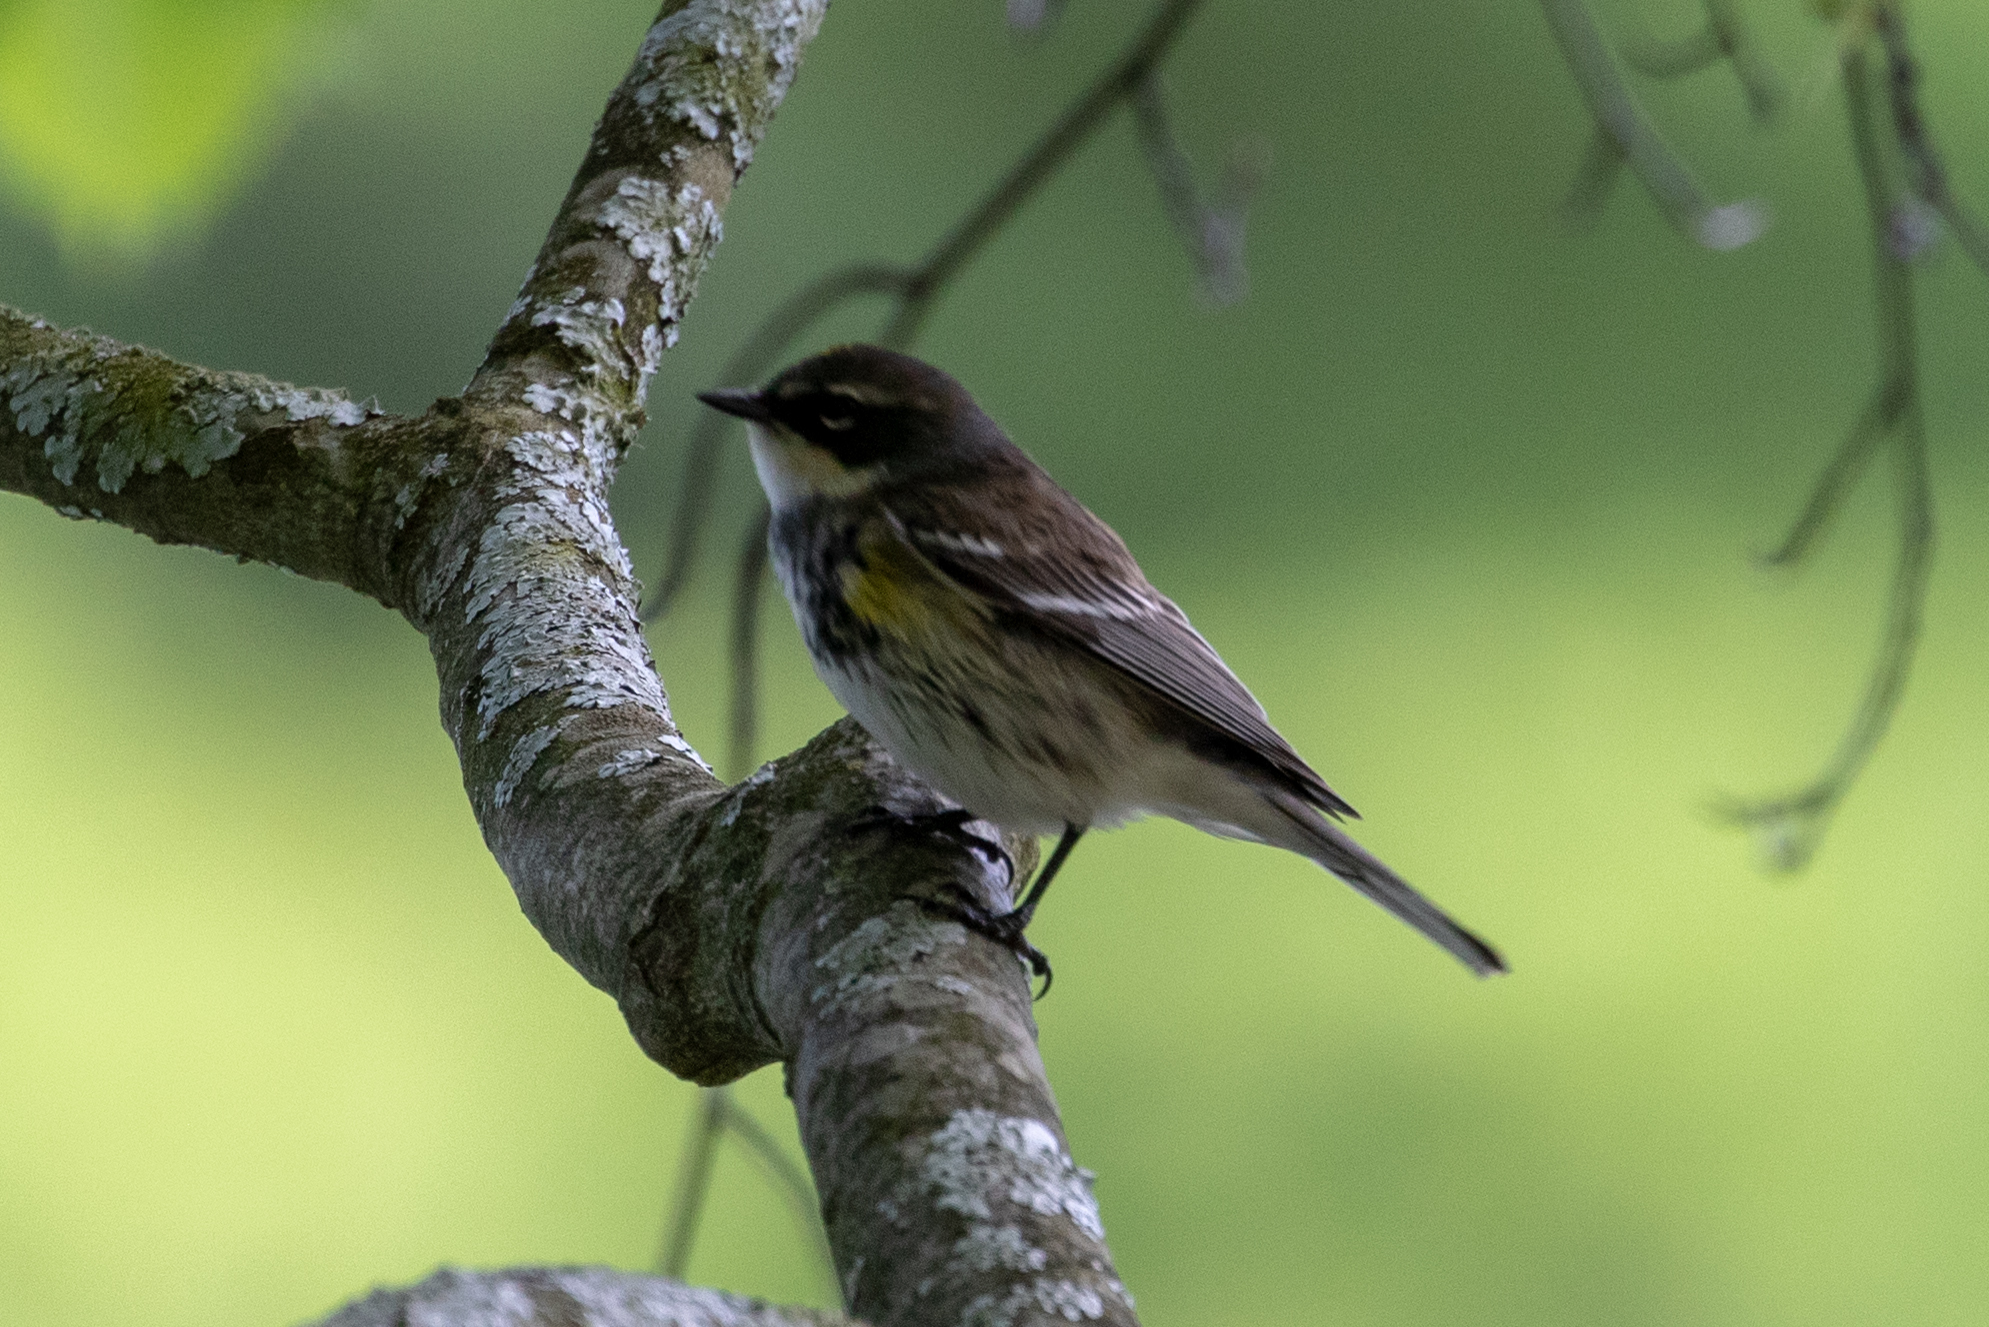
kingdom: Animalia
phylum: Chordata
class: Aves
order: Passeriformes
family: Parulidae
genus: Setophaga
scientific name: Setophaga coronata
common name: Myrtle warbler
